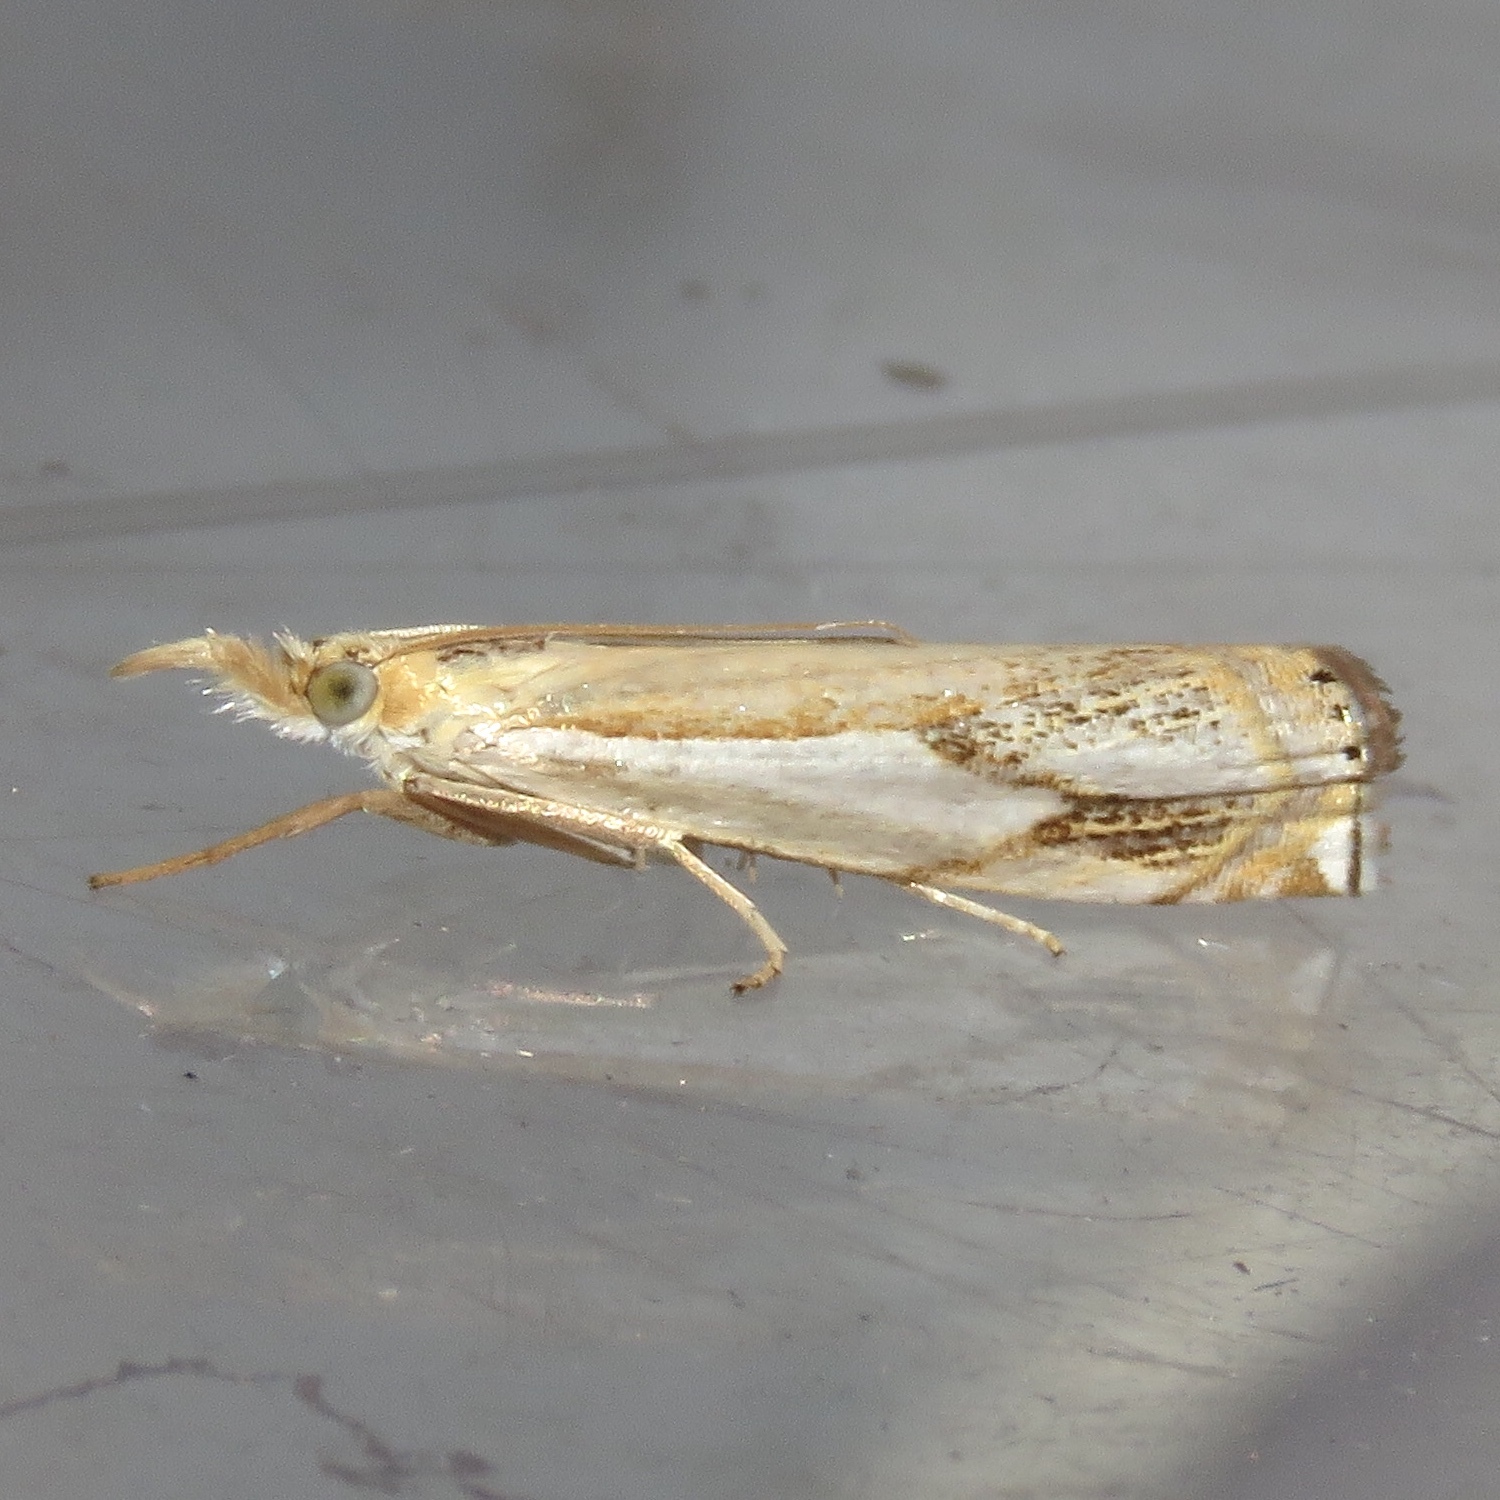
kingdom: Animalia
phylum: Arthropoda
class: Insecta
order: Lepidoptera
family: Crambidae
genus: Crambus
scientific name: Crambus agitatellus
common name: Double-banded grass-veneer
